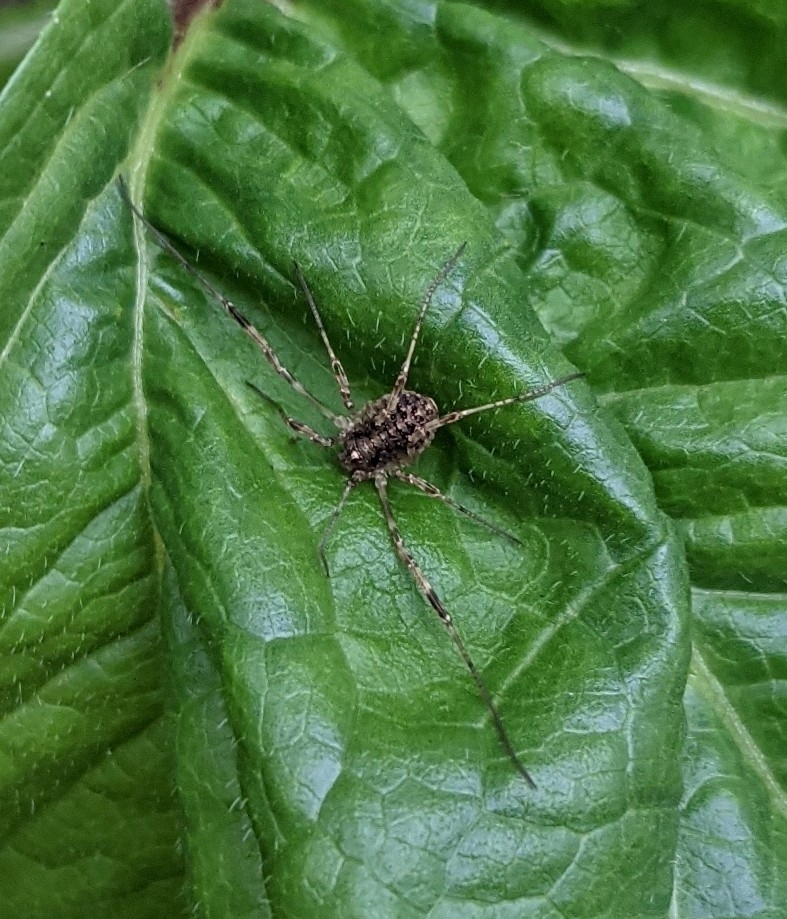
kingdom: Animalia
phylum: Arthropoda
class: Arachnida
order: Opiliones
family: Phalangiidae
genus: Paroligolophus
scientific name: Paroligolophus agrestis
